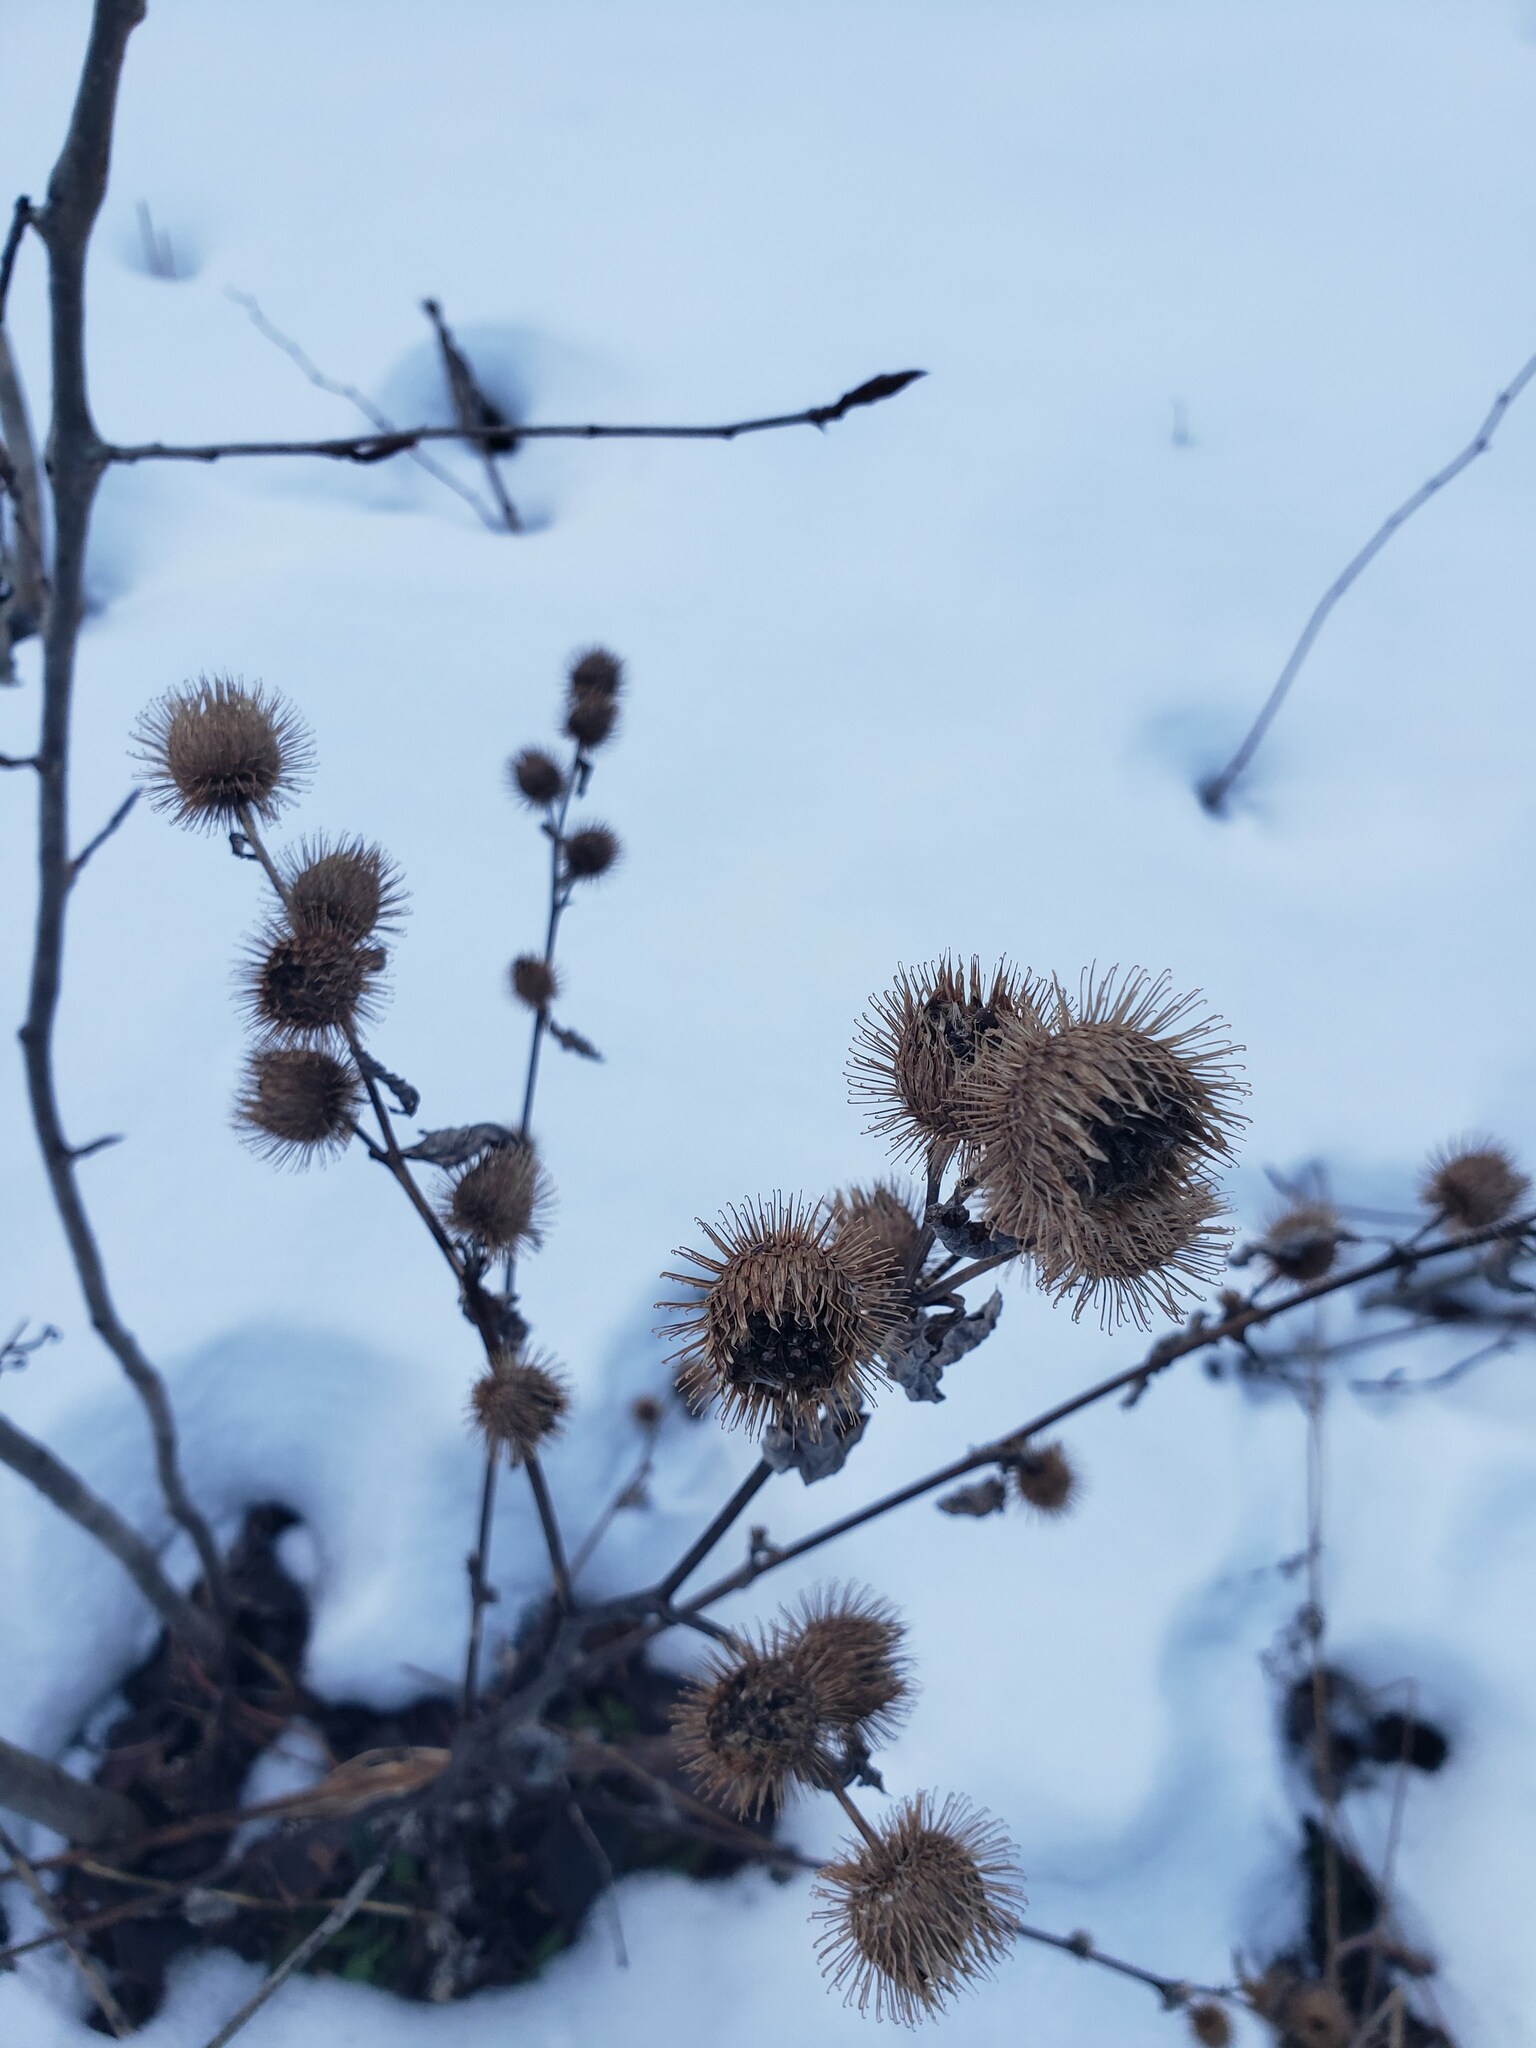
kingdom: Plantae
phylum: Tracheophyta
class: Magnoliopsida
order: Asterales
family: Asteraceae
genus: Arctium
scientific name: Arctium minus
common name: Lesser burdock
